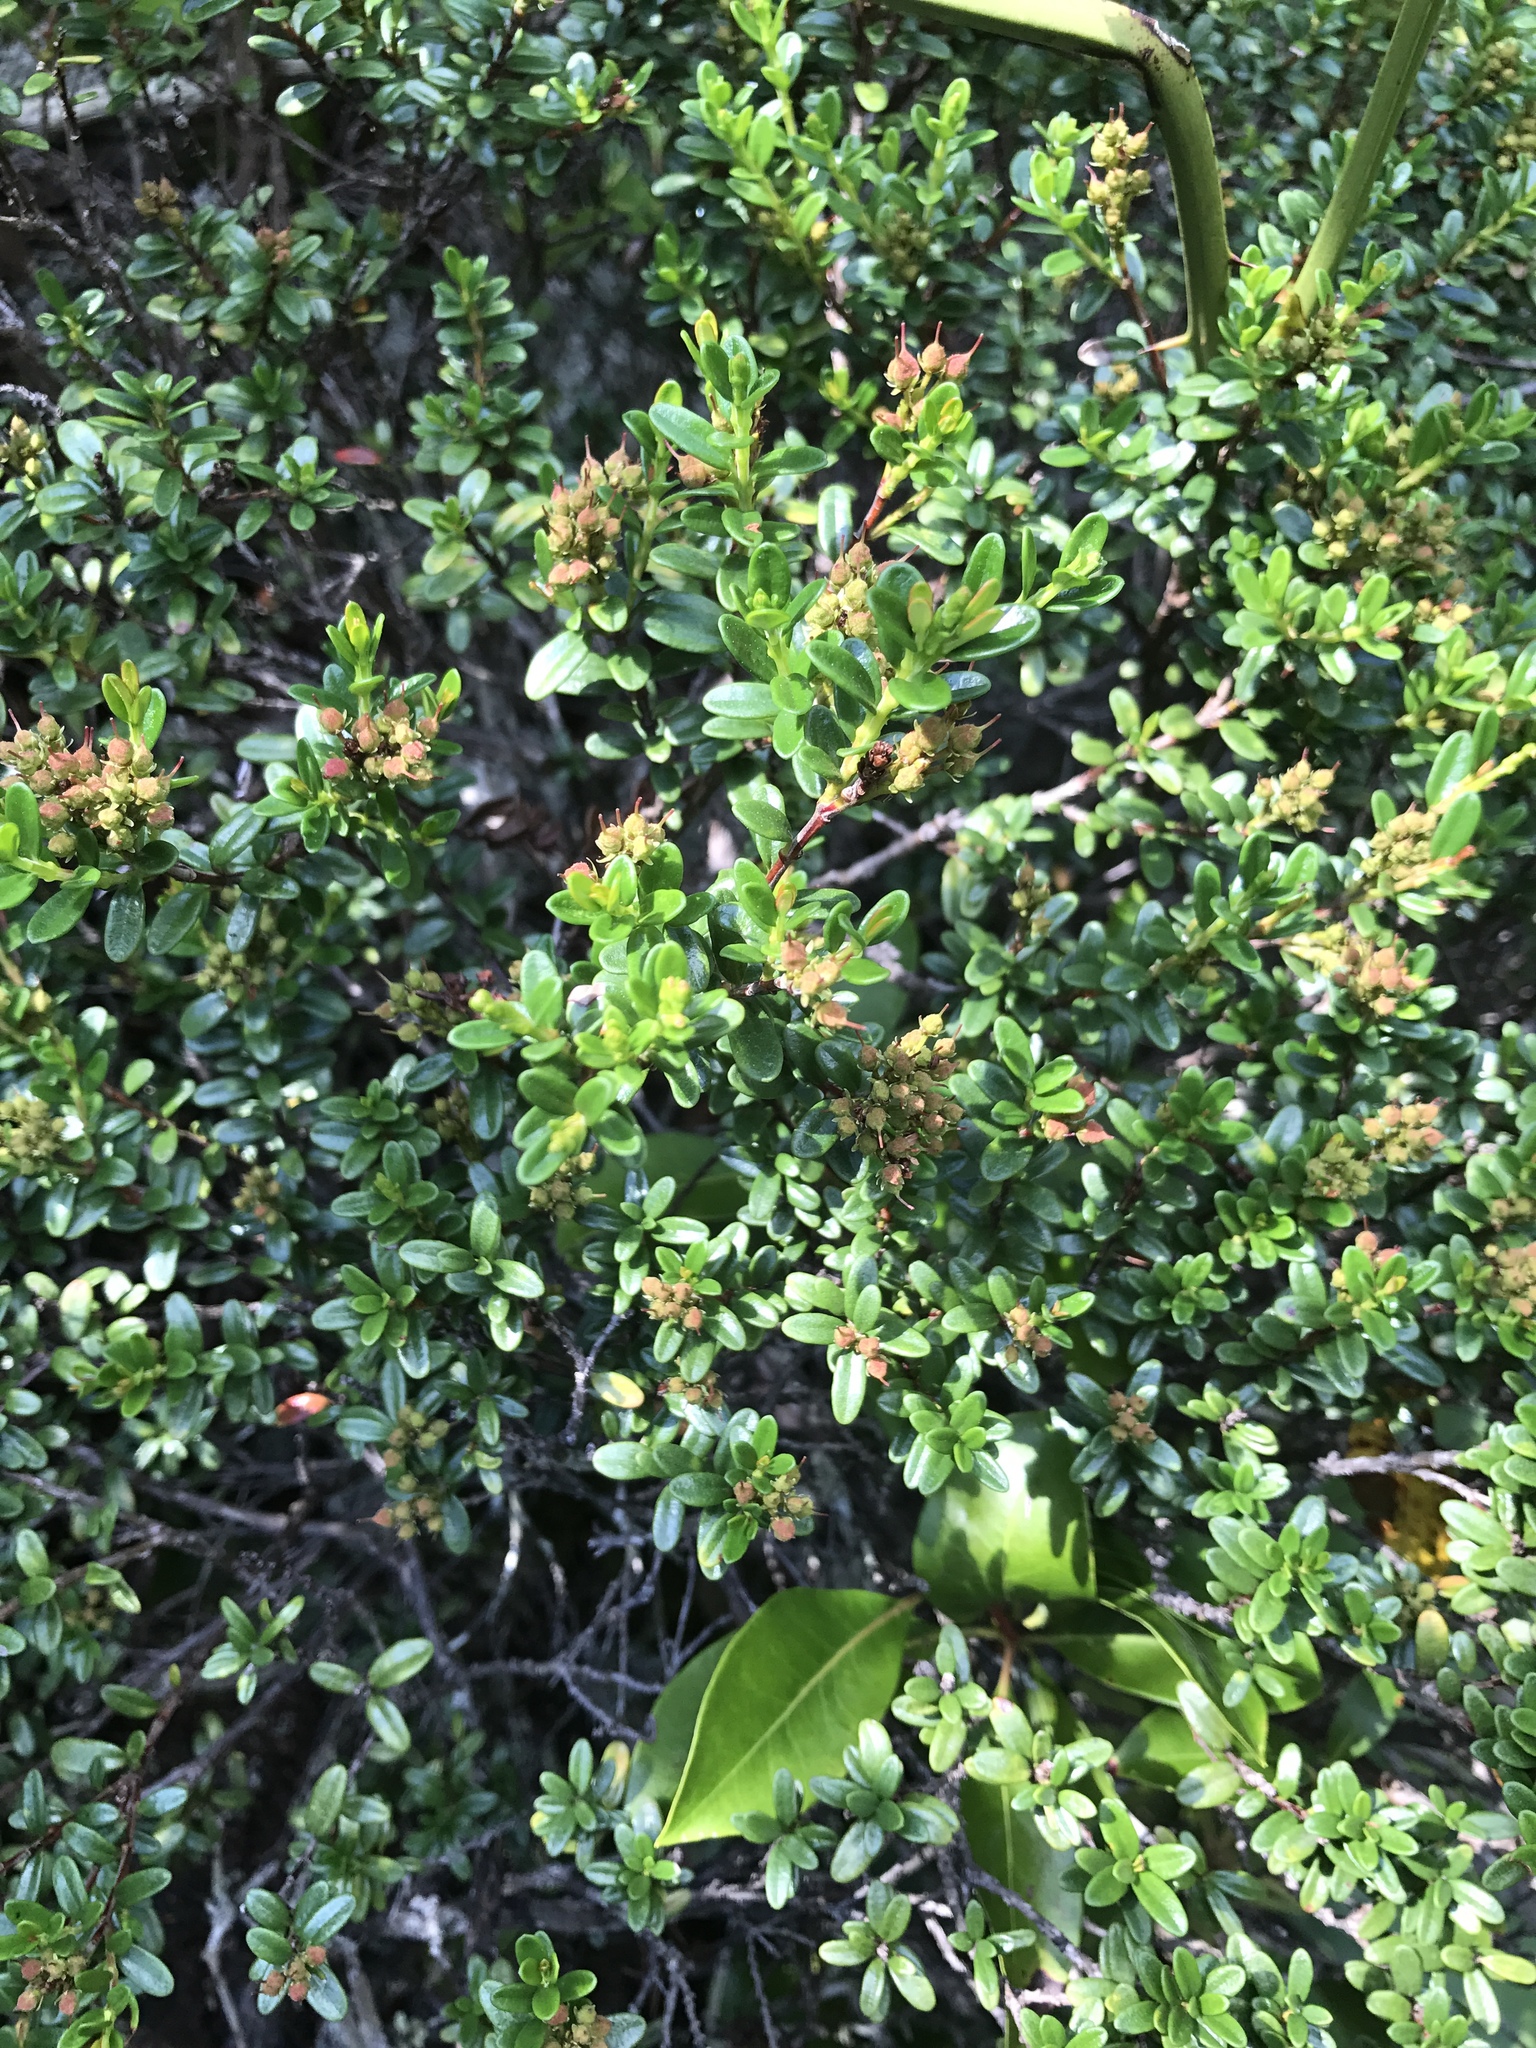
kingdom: Plantae
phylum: Tracheophyta
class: Magnoliopsida
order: Ericales
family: Ericaceae
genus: Kalmia
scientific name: Kalmia buxifolia
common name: Sandmyrtle
